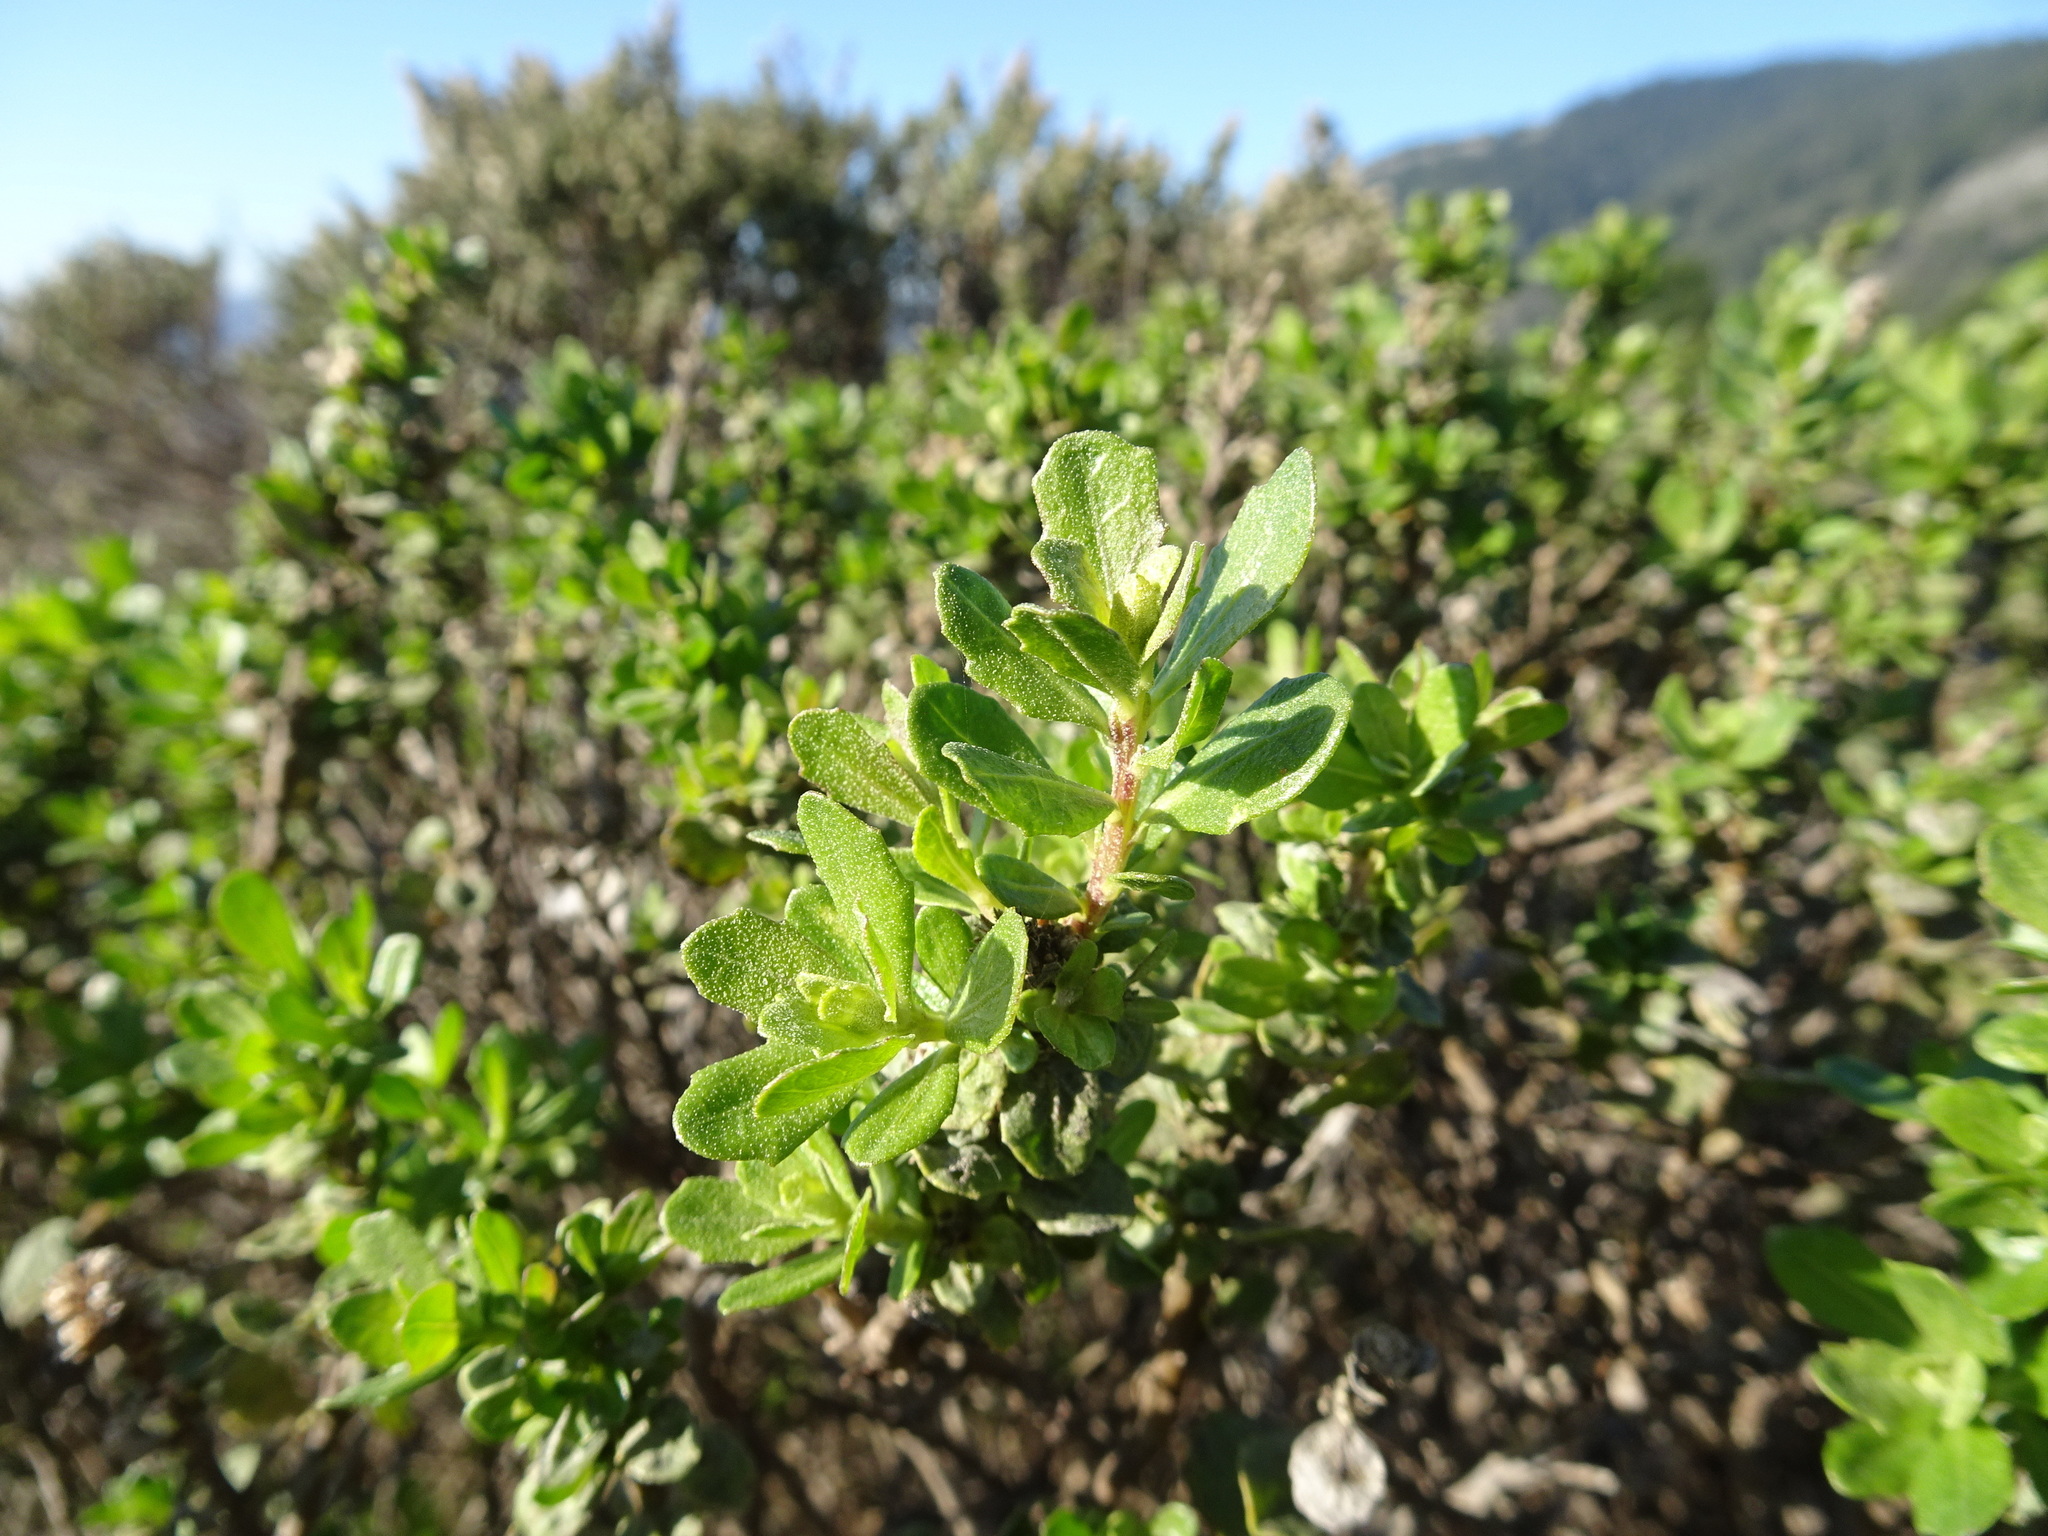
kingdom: Plantae
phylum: Tracheophyta
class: Magnoliopsida
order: Asterales
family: Asteraceae
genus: Baccharis
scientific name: Baccharis pilularis
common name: Coyotebrush
